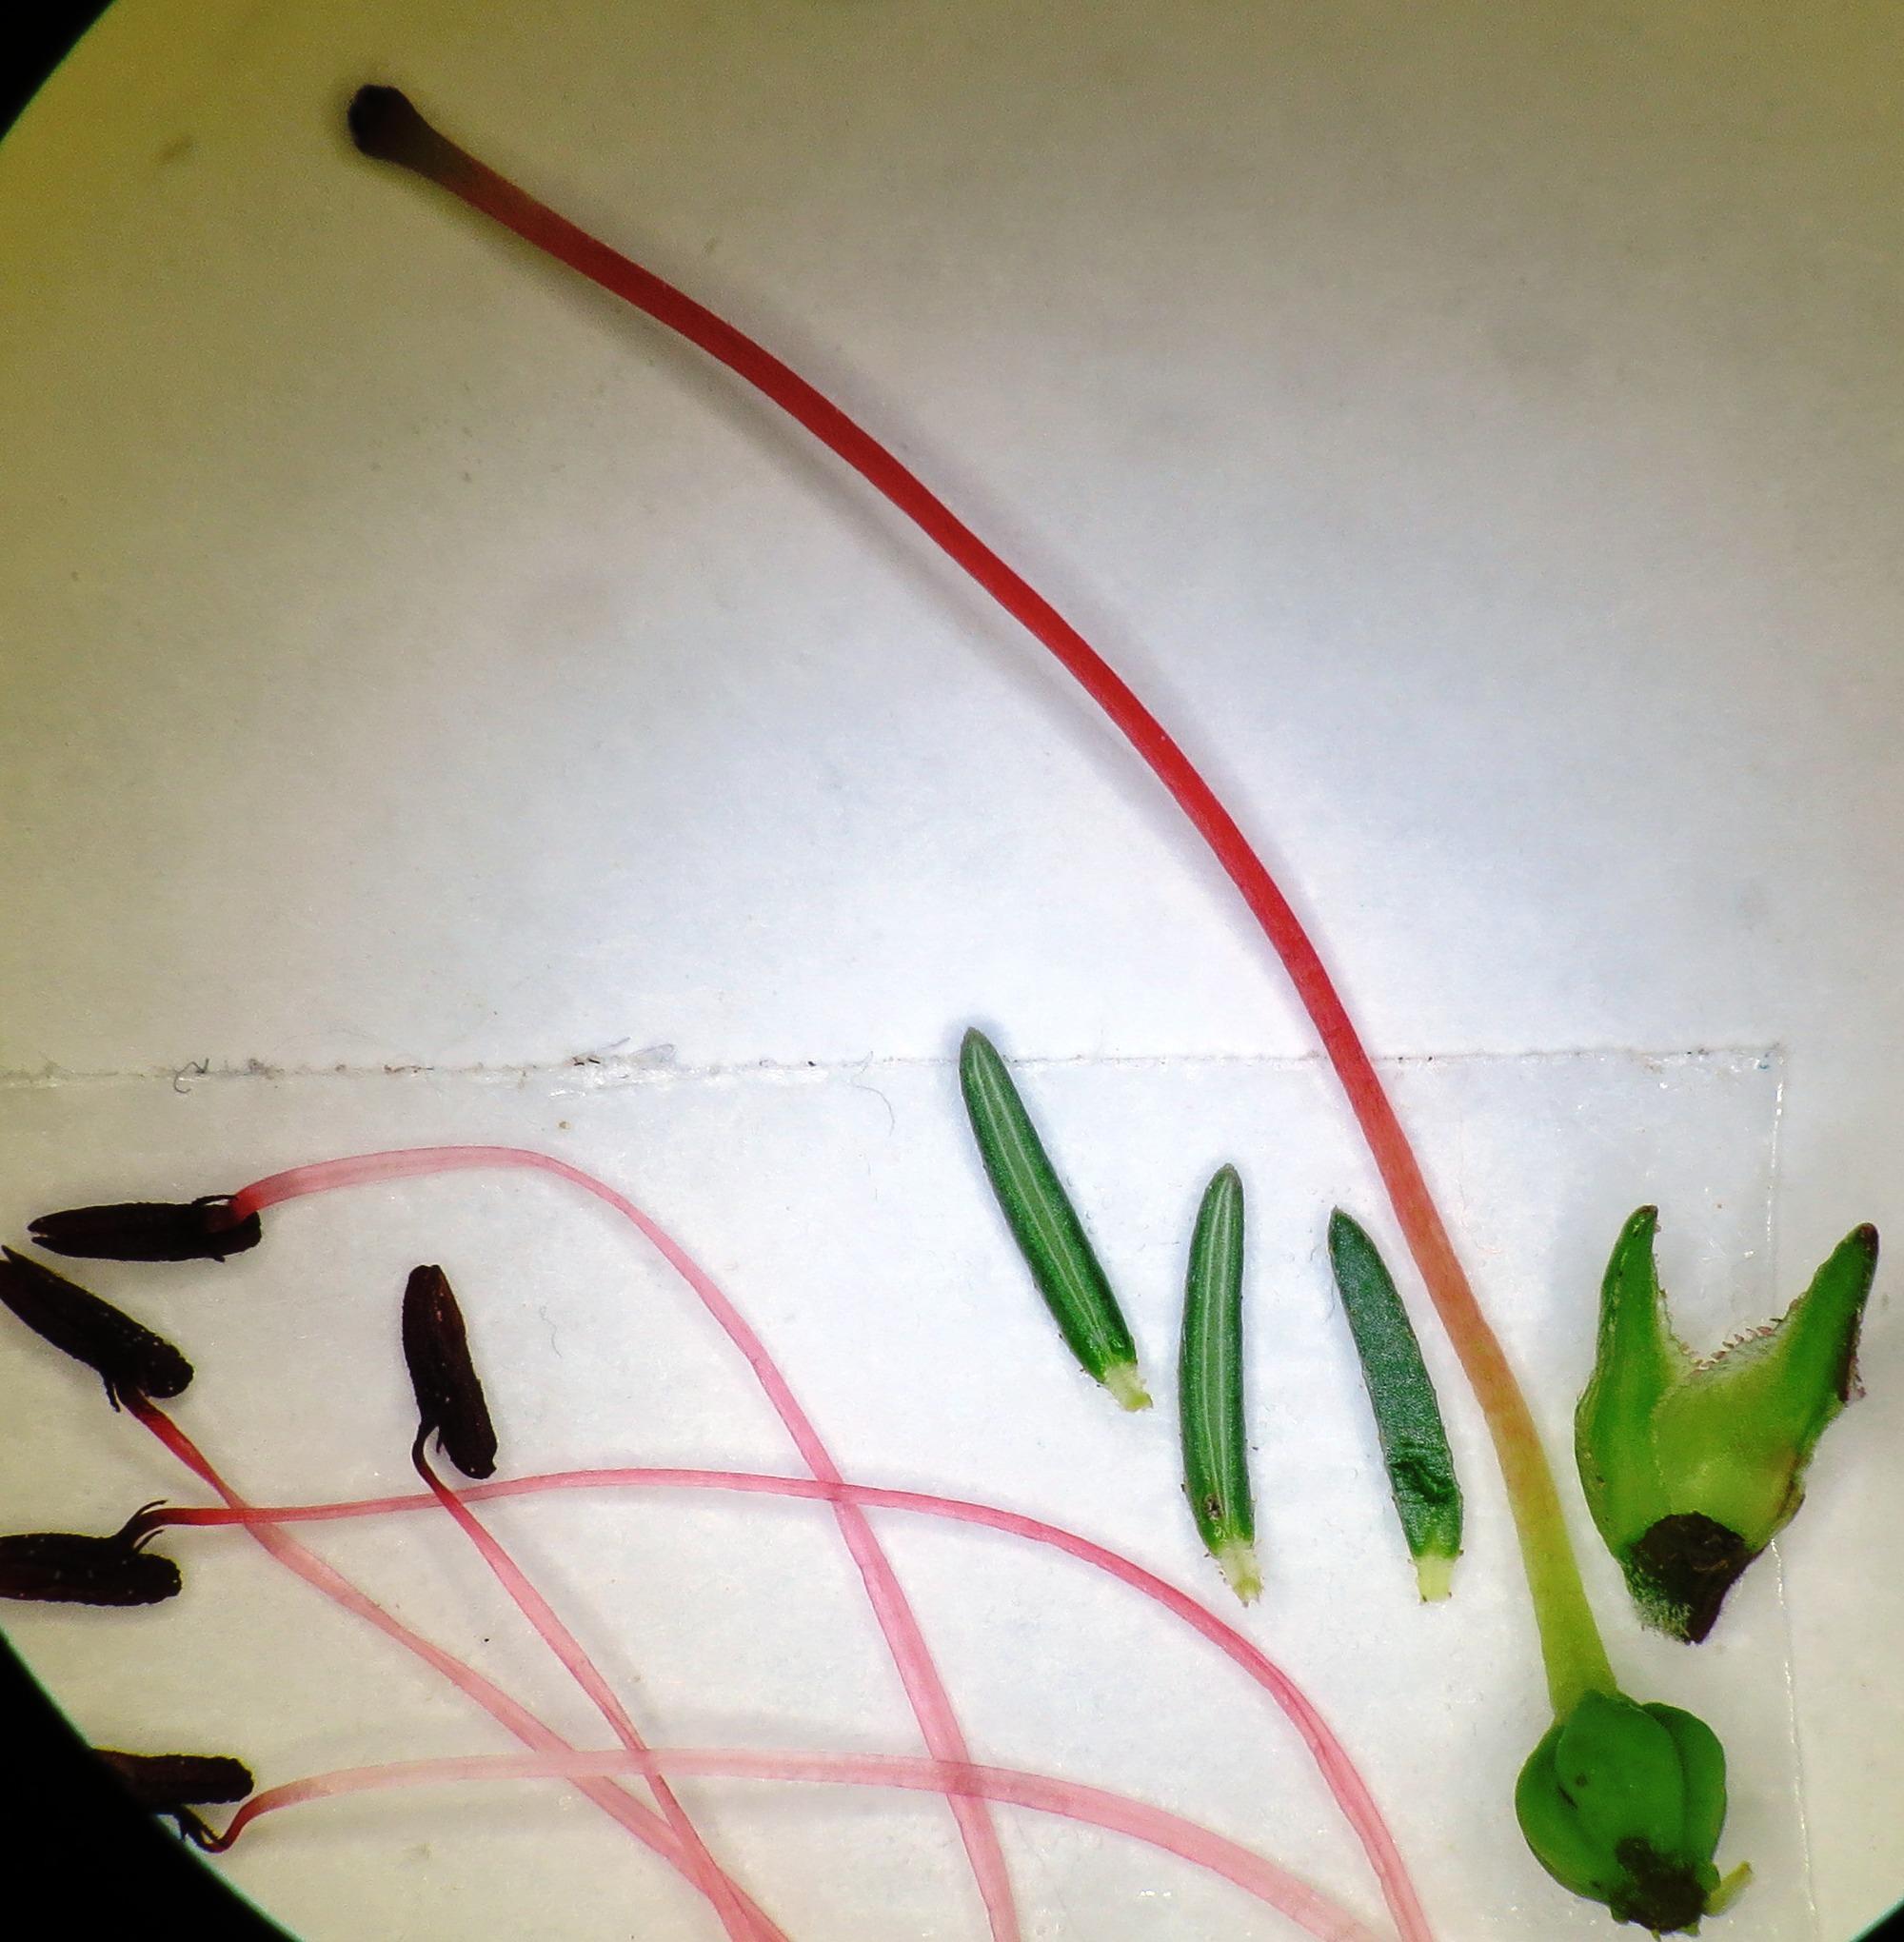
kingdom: Plantae
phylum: Tracheophyta
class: Magnoliopsida
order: Ericales
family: Ericaceae
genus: Erica
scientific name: Erica cruenta
